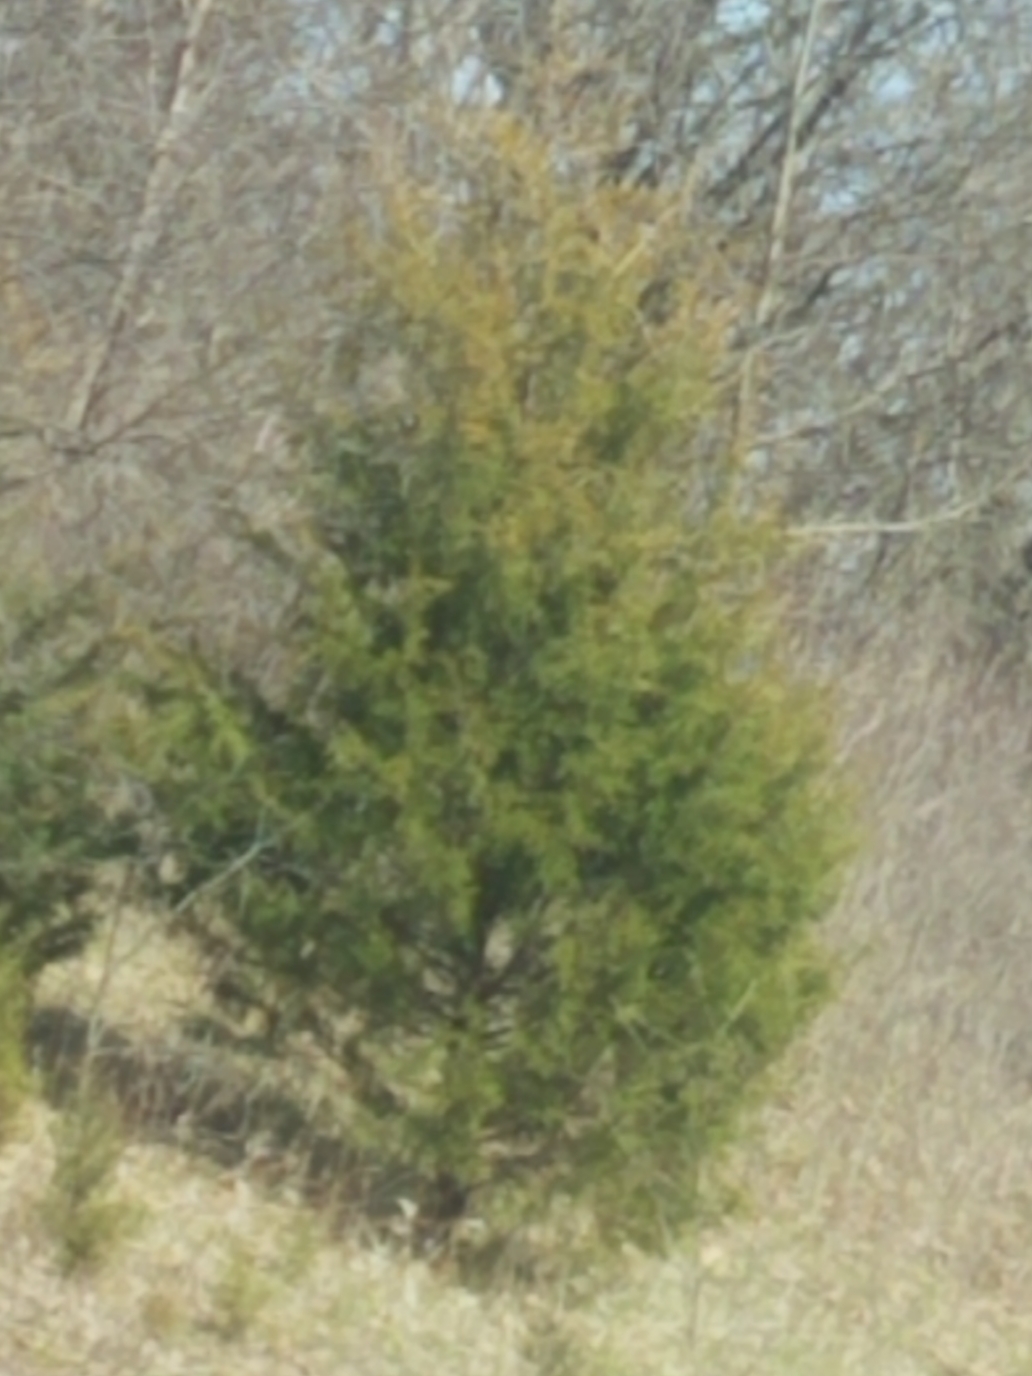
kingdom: Plantae
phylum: Tracheophyta
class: Pinopsida
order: Pinales
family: Cupressaceae
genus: Juniperus
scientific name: Juniperus virginiana
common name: Red juniper
